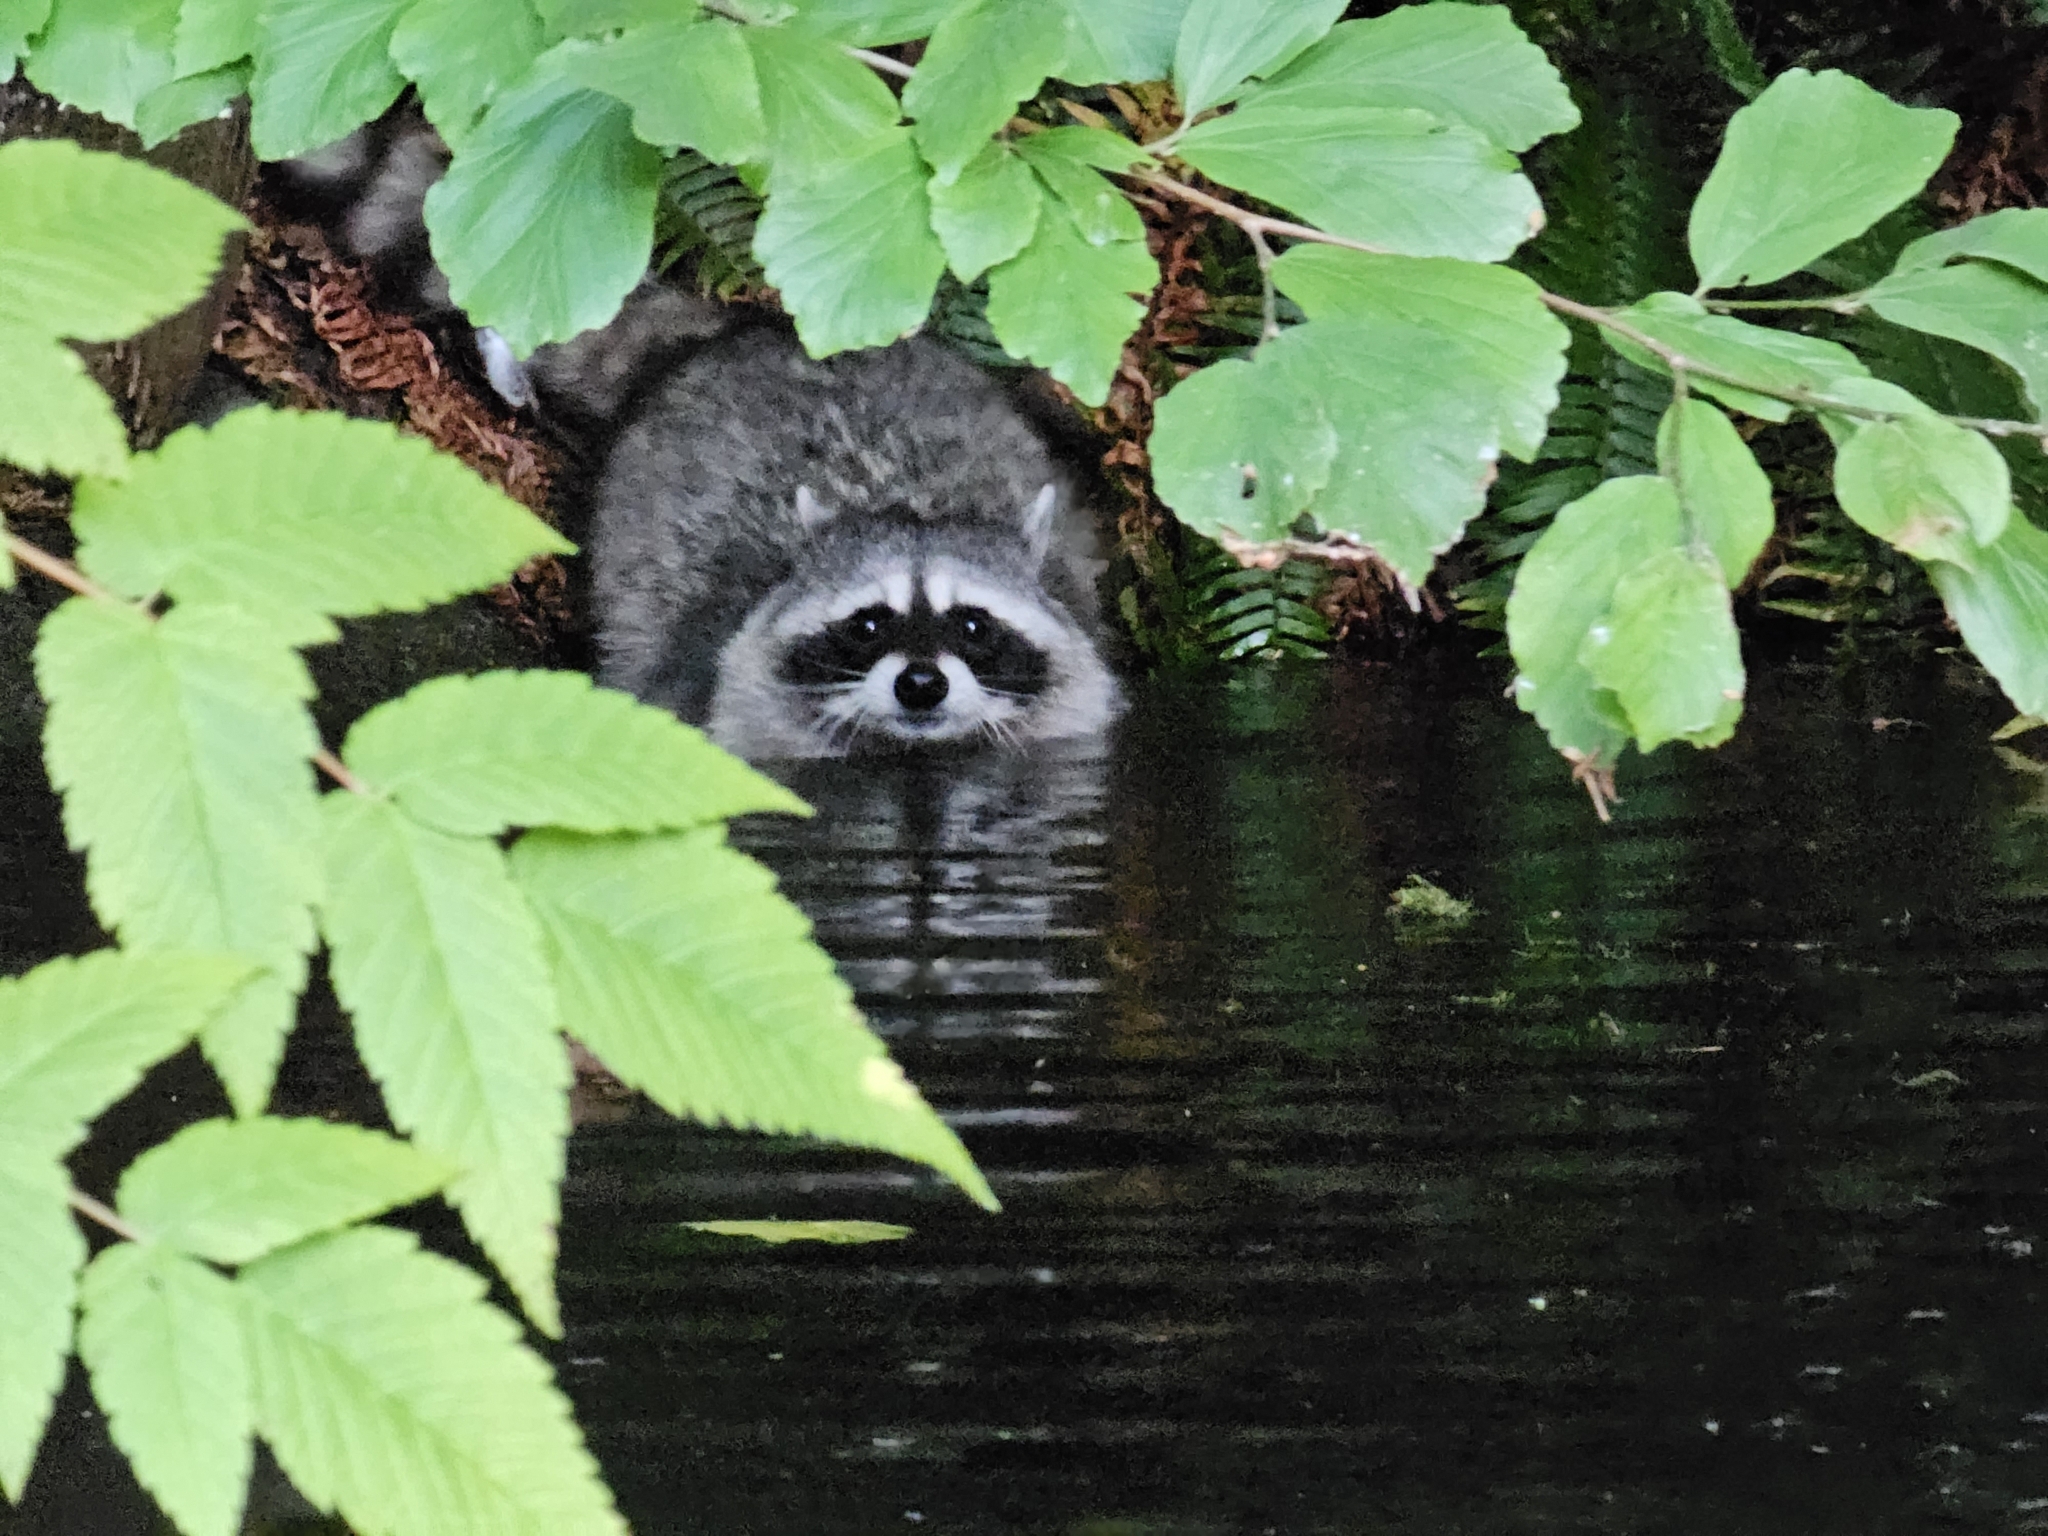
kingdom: Animalia
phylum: Chordata
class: Mammalia
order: Carnivora
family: Procyonidae
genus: Procyon
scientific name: Procyon lotor
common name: Raccoon
